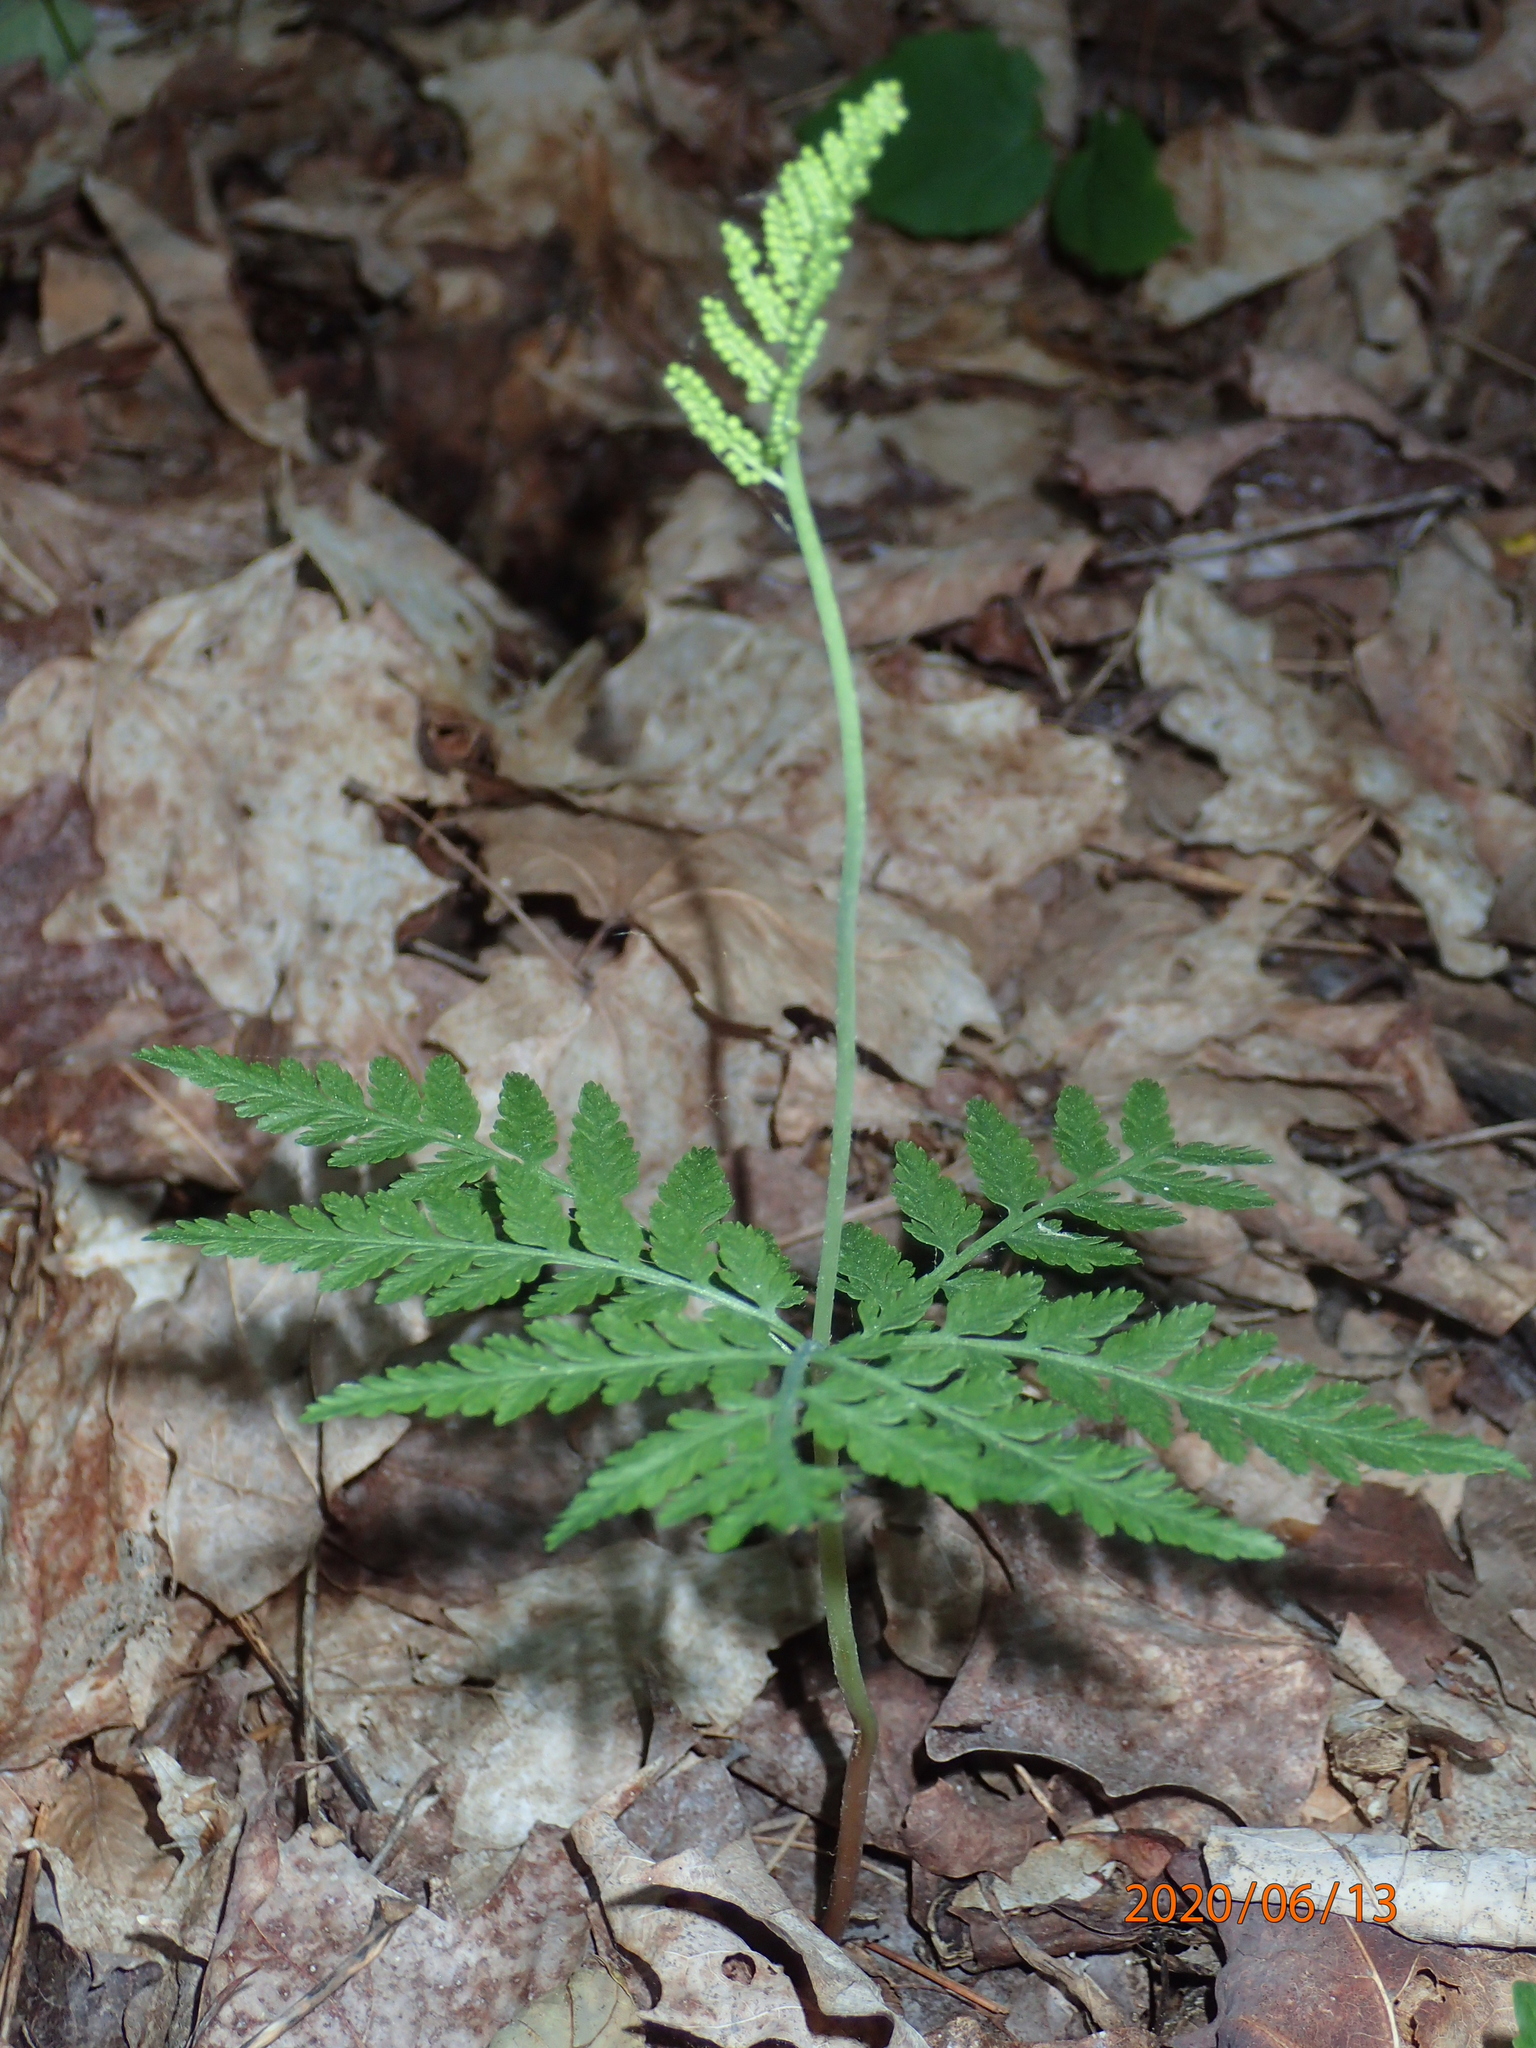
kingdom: Plantae
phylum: Tracheophyta
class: Polypodiopsida
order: Ophioglossales
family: Ophioglossaceae
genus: Botrypus
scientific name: Botrypus virginianus
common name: Common grapefern
